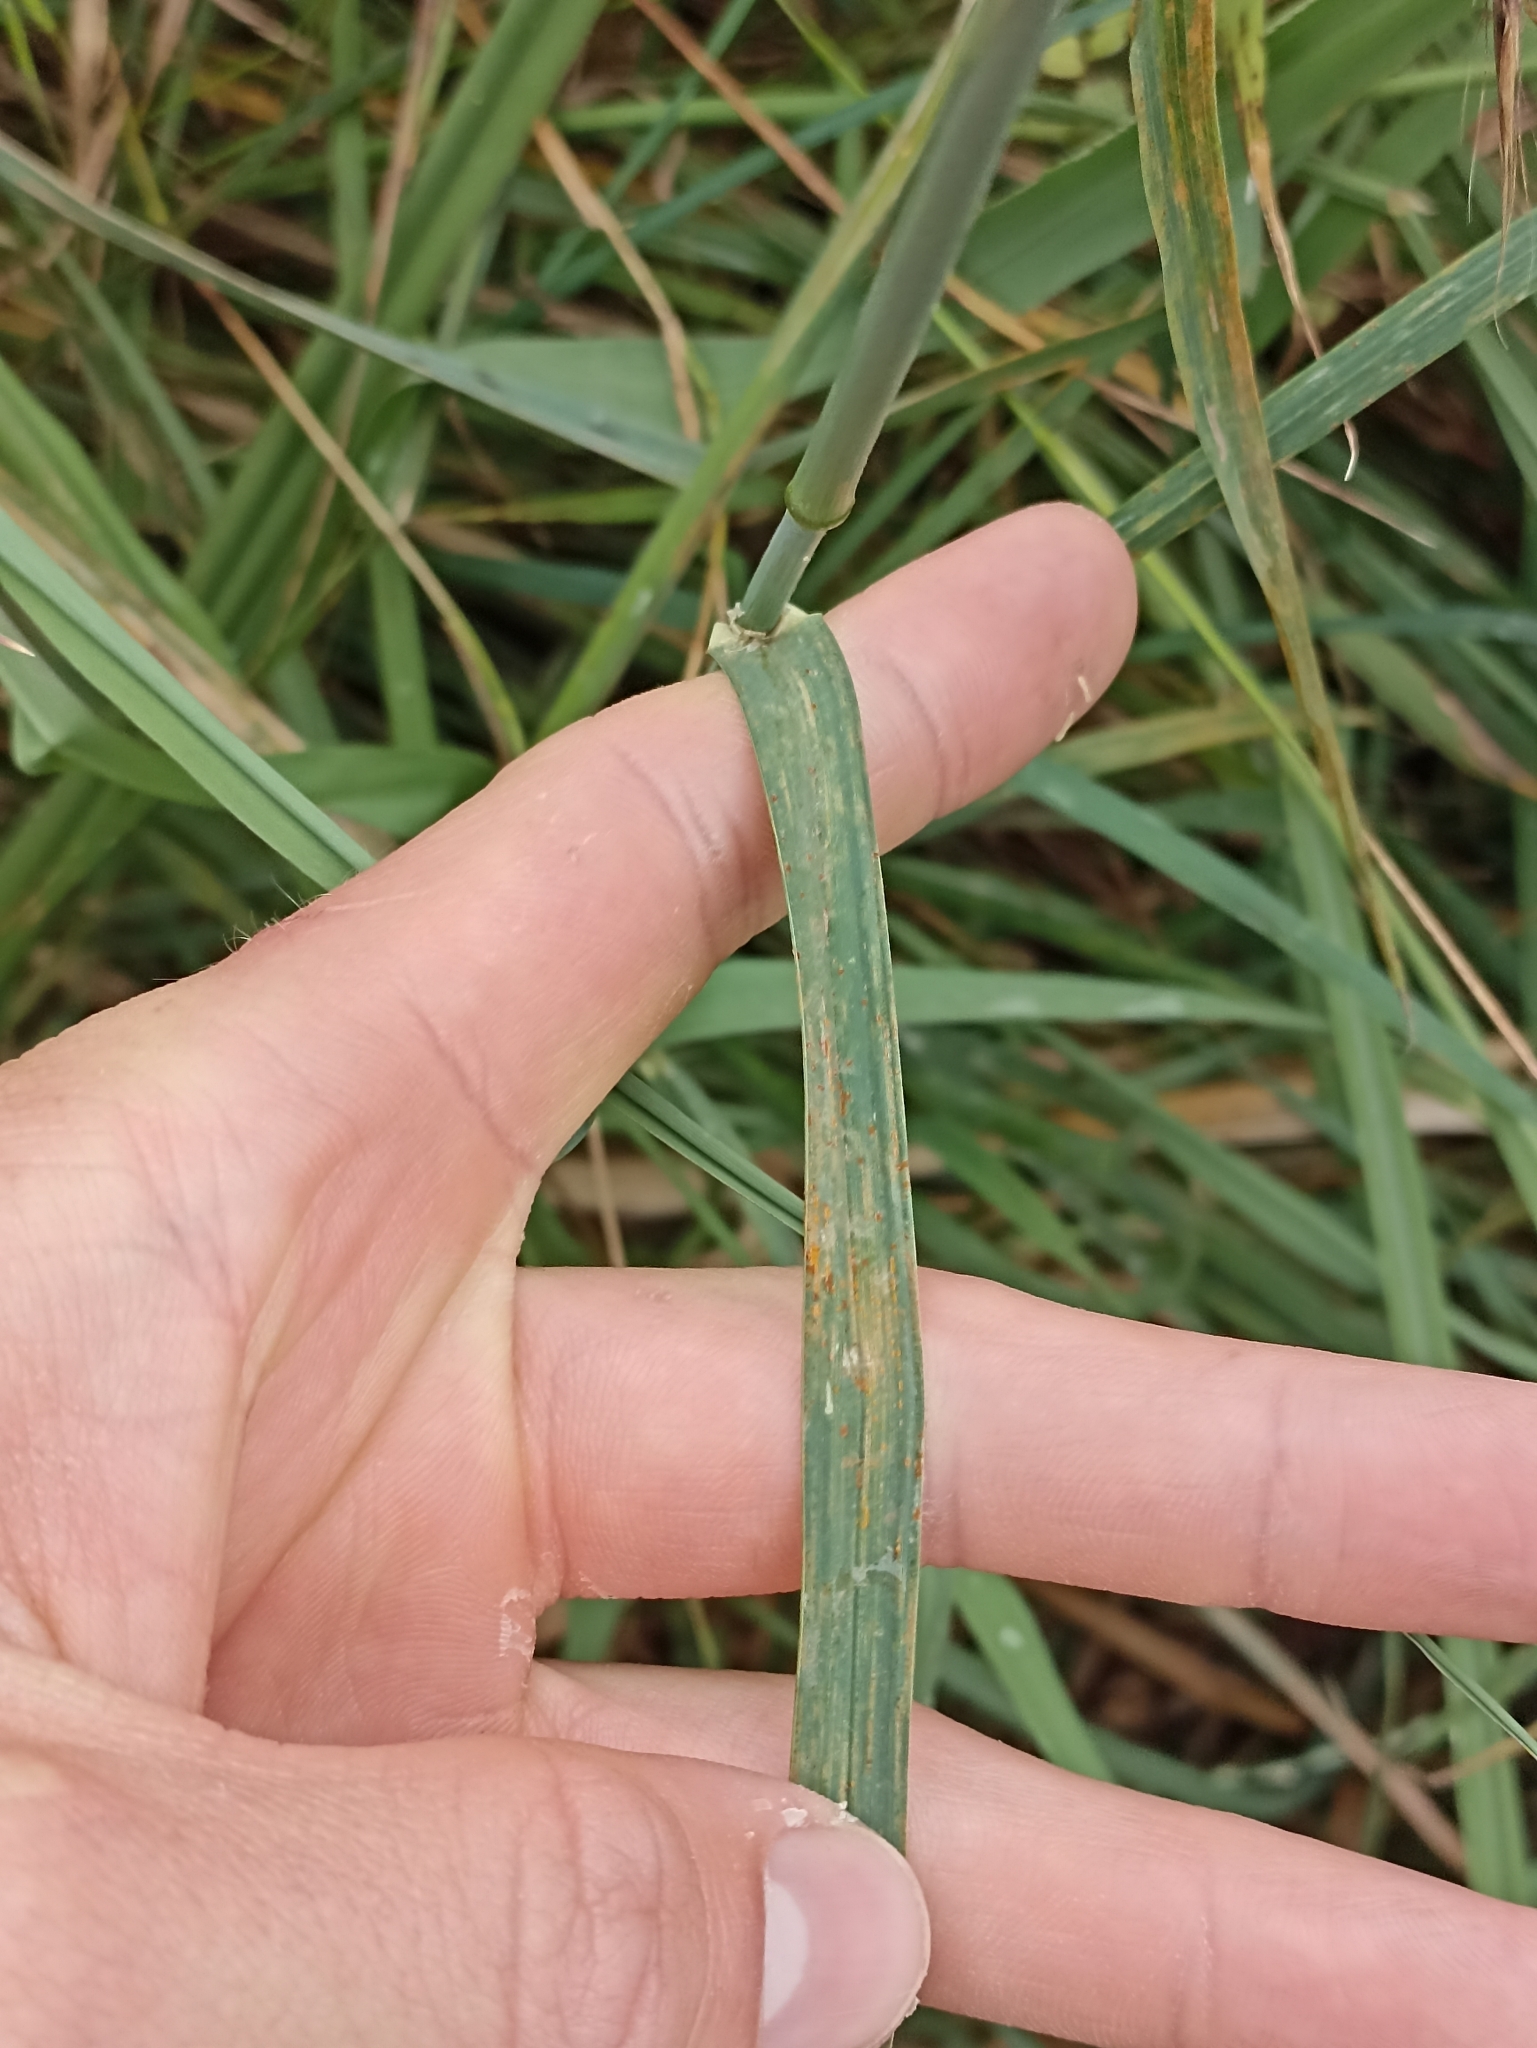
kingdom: Plantae
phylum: Tracheophyta
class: Liliopsida
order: Poales
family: Poaceae
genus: Dactylis
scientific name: Dactylis glomerata
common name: Orchardgrass
